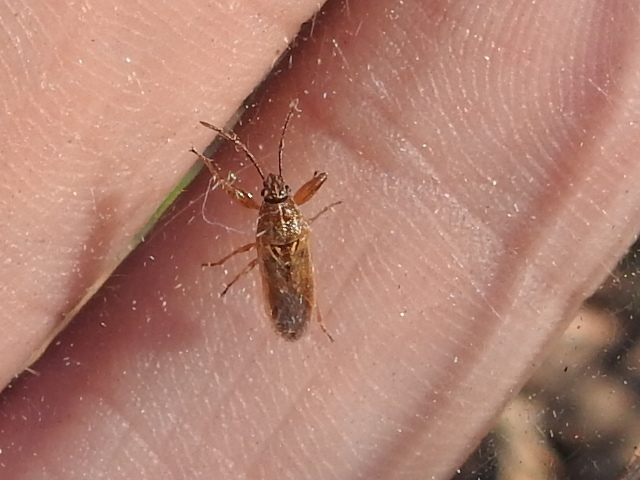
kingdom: Animalia
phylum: Arthropoda
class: Insecta
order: Hemiptera
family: Pachygronthidae
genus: Oedancala
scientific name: Oedancala crassimana
